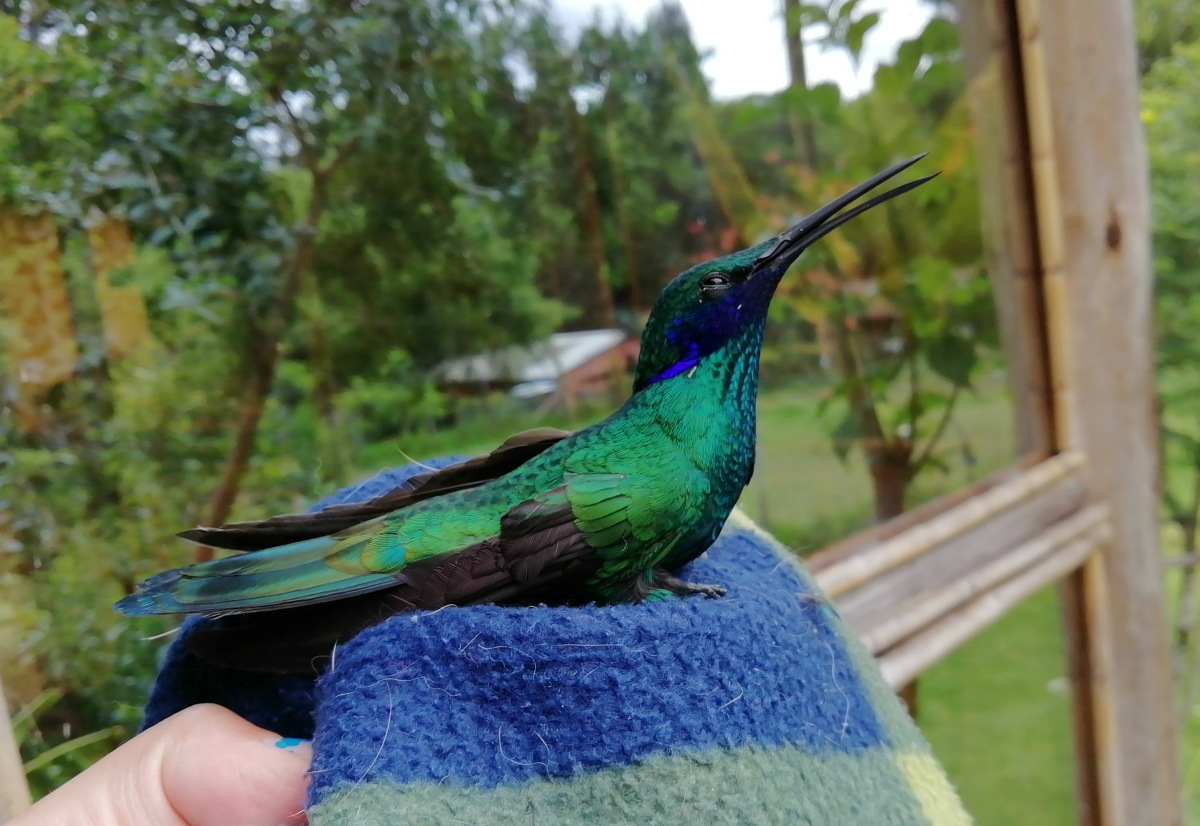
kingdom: Animalia
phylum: Chordata
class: Aves
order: Apodiformes
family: Trochilidae
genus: Colibri
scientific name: Colibri coruscans
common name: Sparkling violetear
